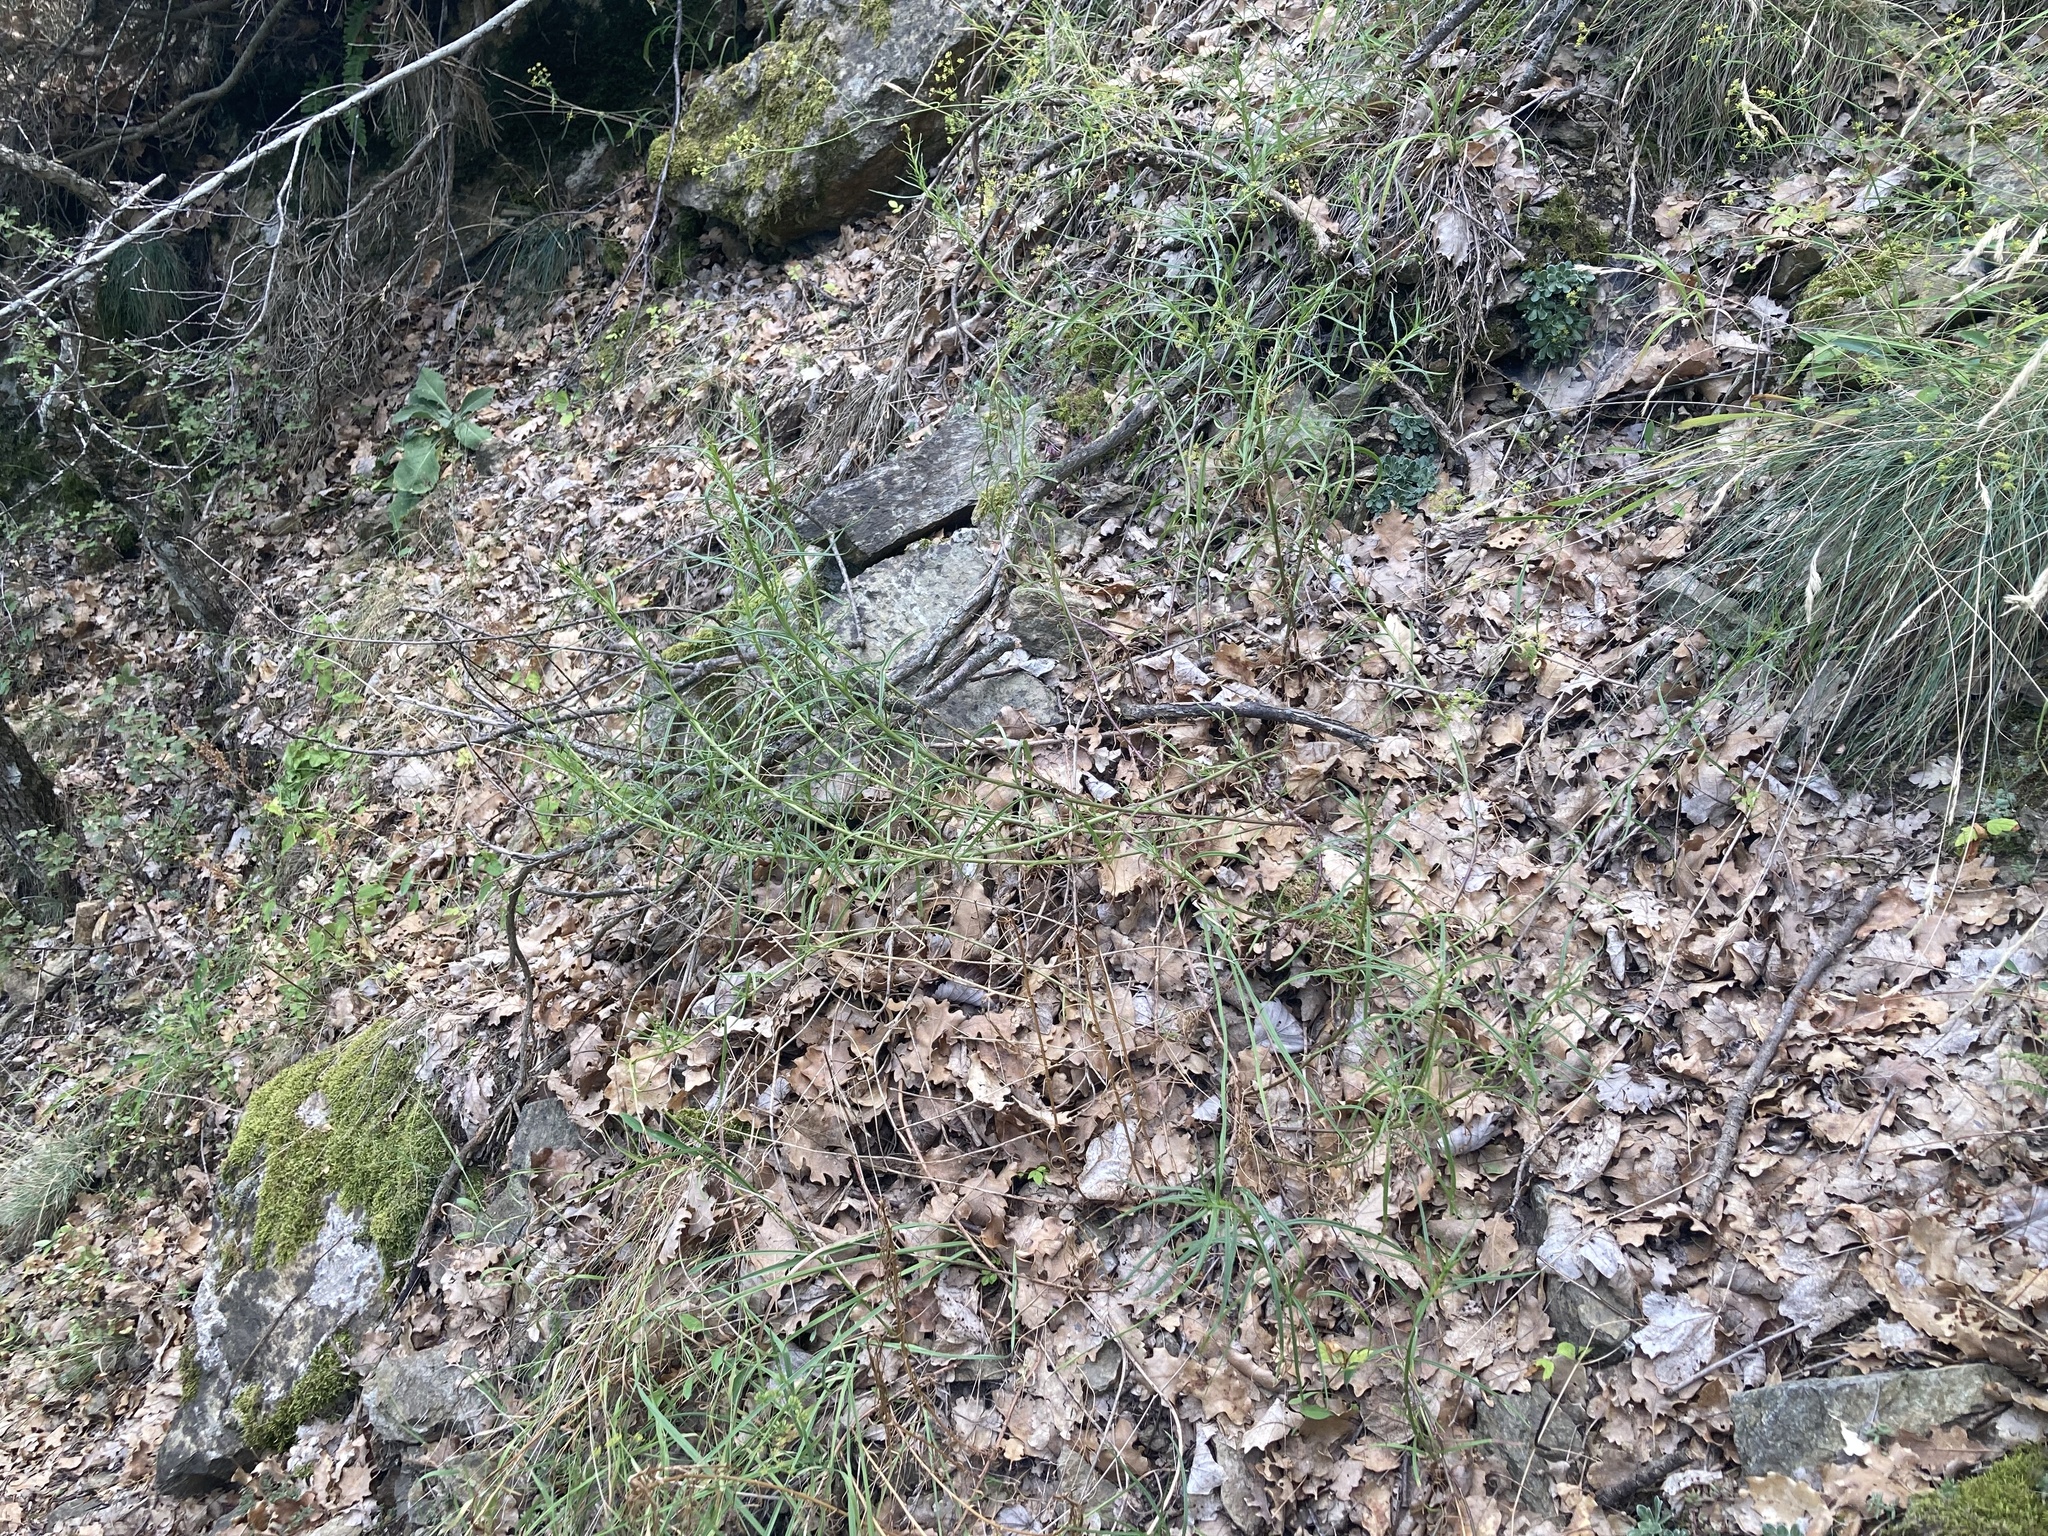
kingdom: Plantae
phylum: Tracheophyta
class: Magnoliopsida
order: Asterales
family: Asteraceae
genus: Senecio
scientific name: Senecio inaequidens
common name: Narrow-leaved ragwort
